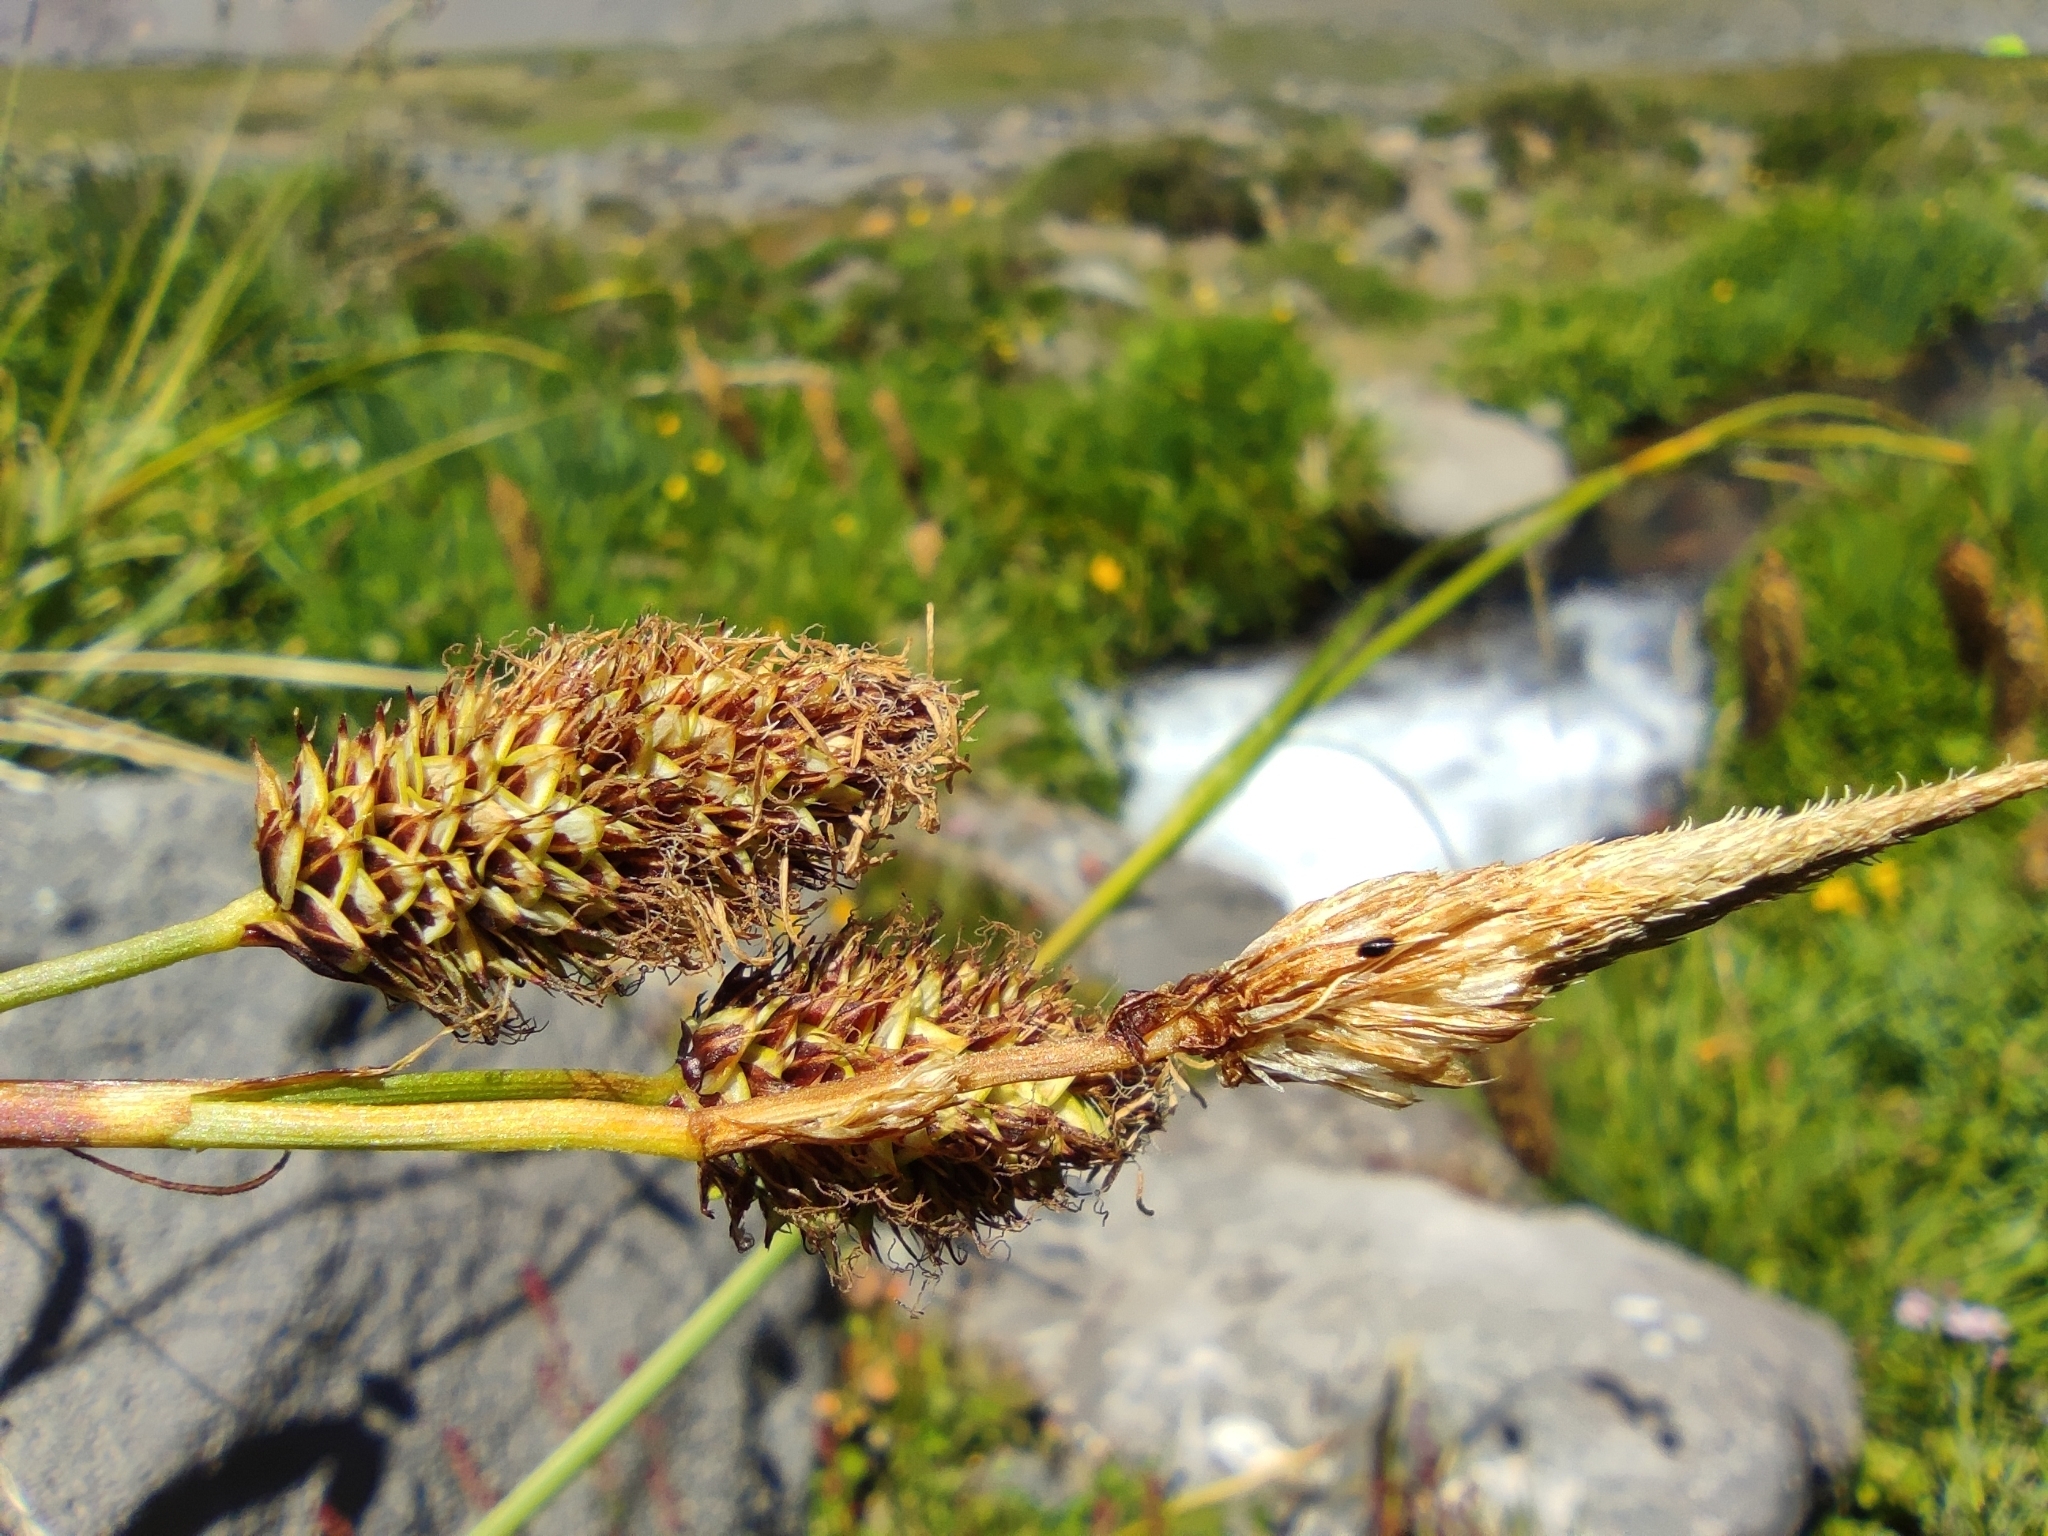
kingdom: Plantae
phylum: Tracheophyta
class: Liliopsida
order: Poales
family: Cyperaceae
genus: Carex
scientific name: Carex banksii
